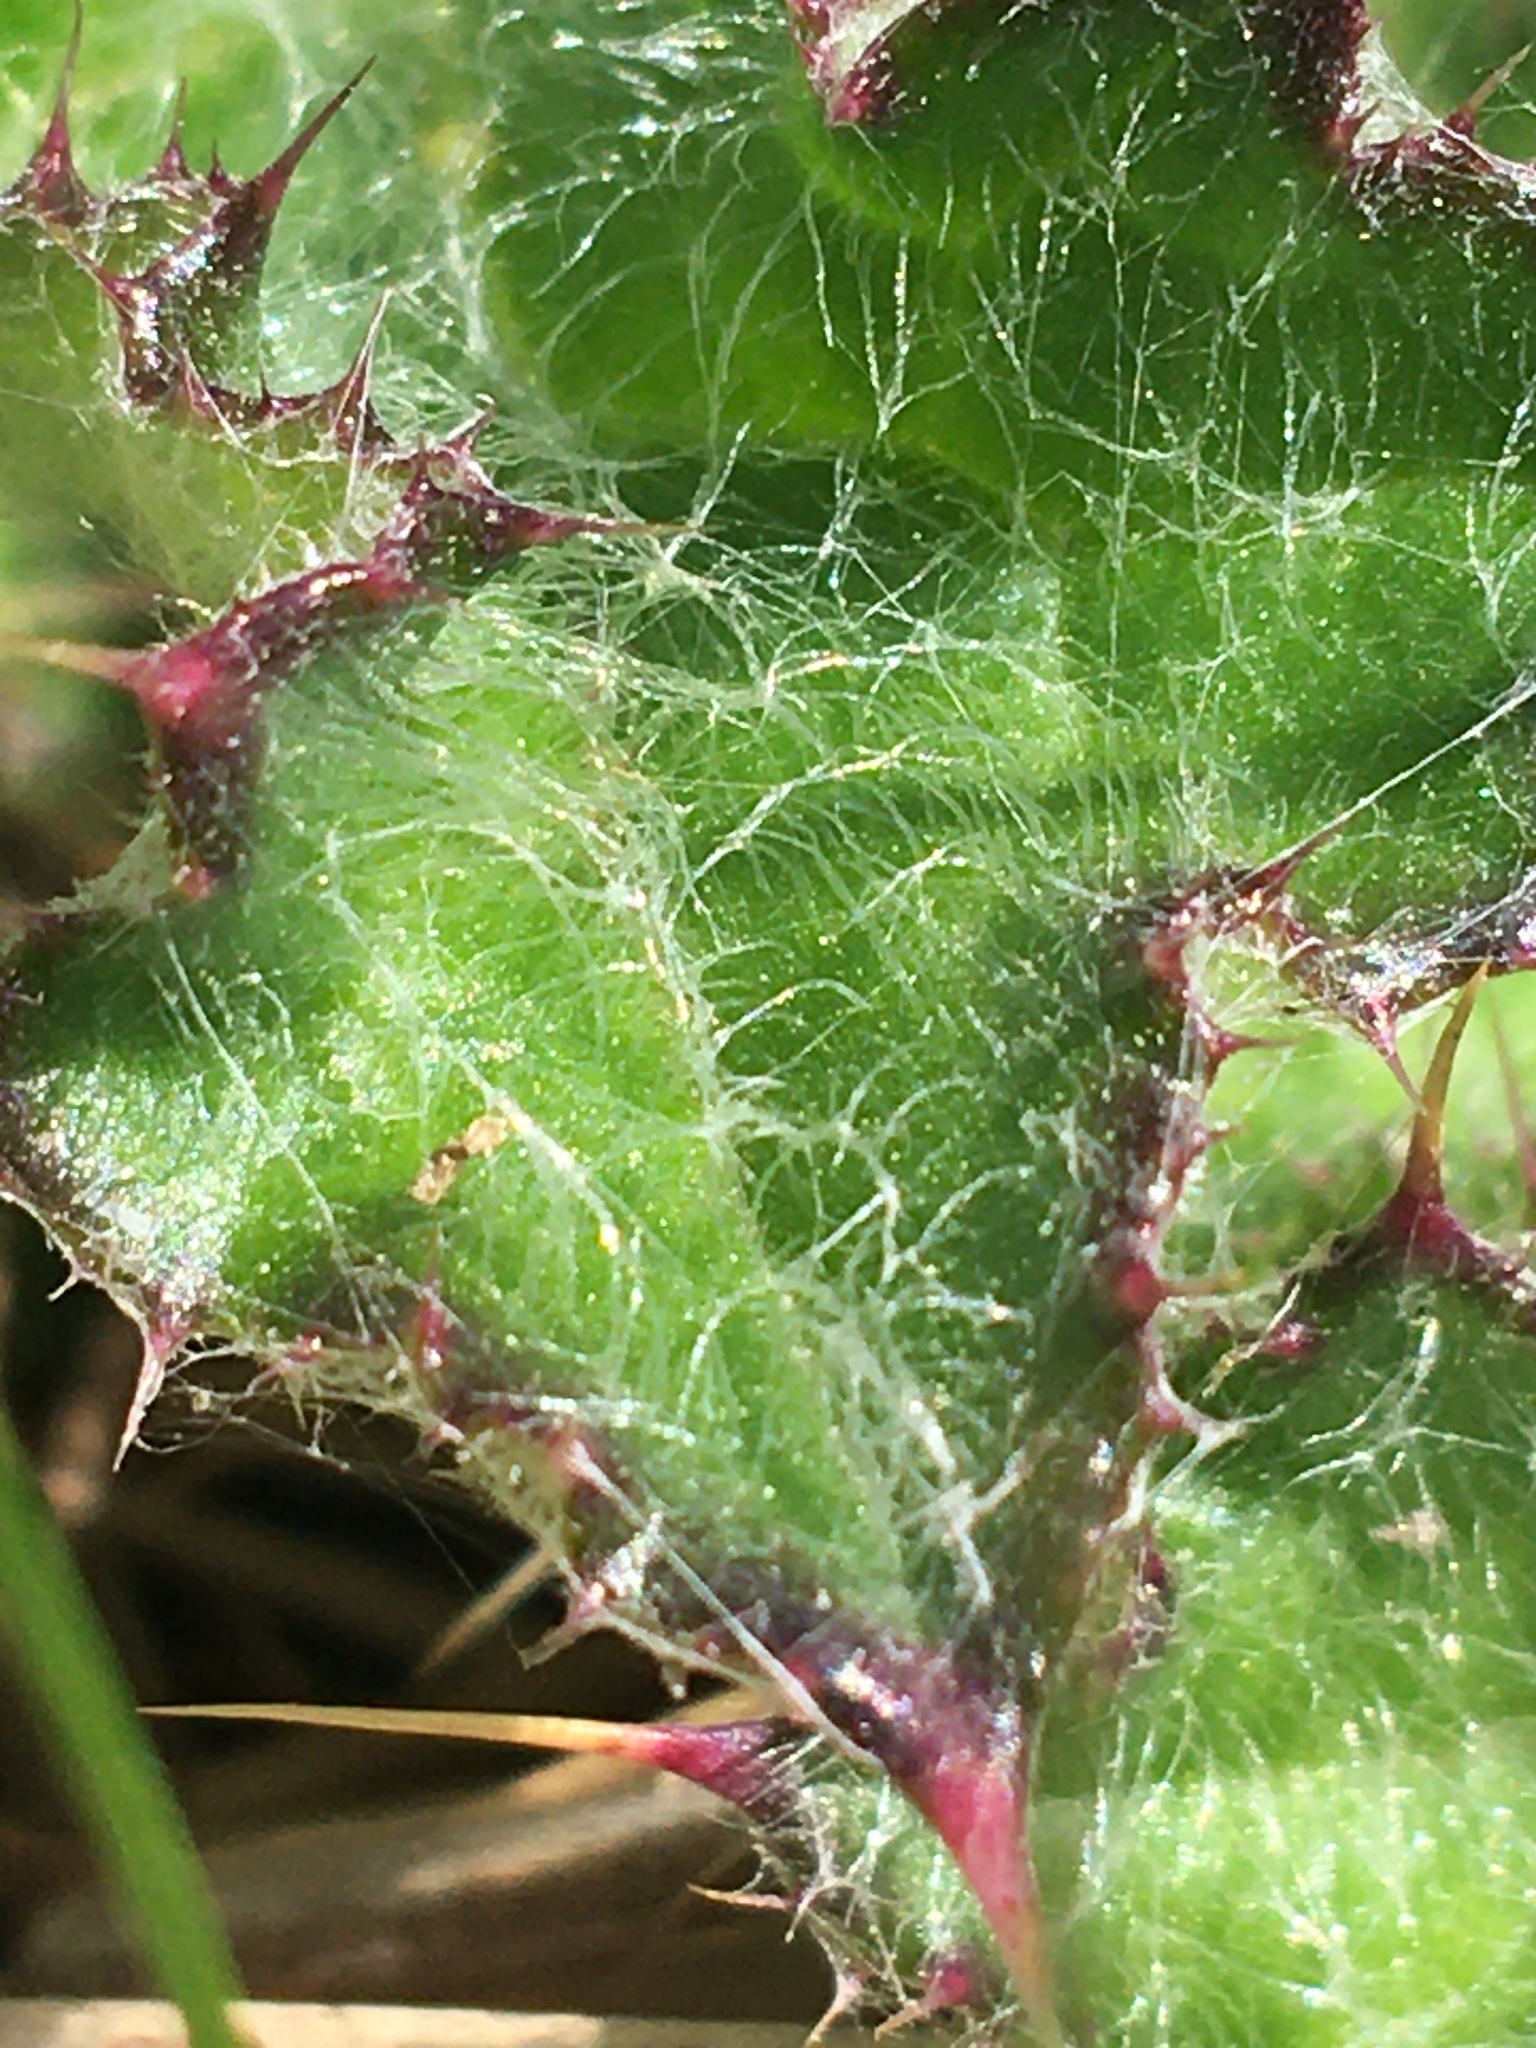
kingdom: Plantae
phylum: Tracheophyta
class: Magnoliopsida
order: Asterales
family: Asteraceae
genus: Cirsium
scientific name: Cirsium vulgare
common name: Bull thistle
